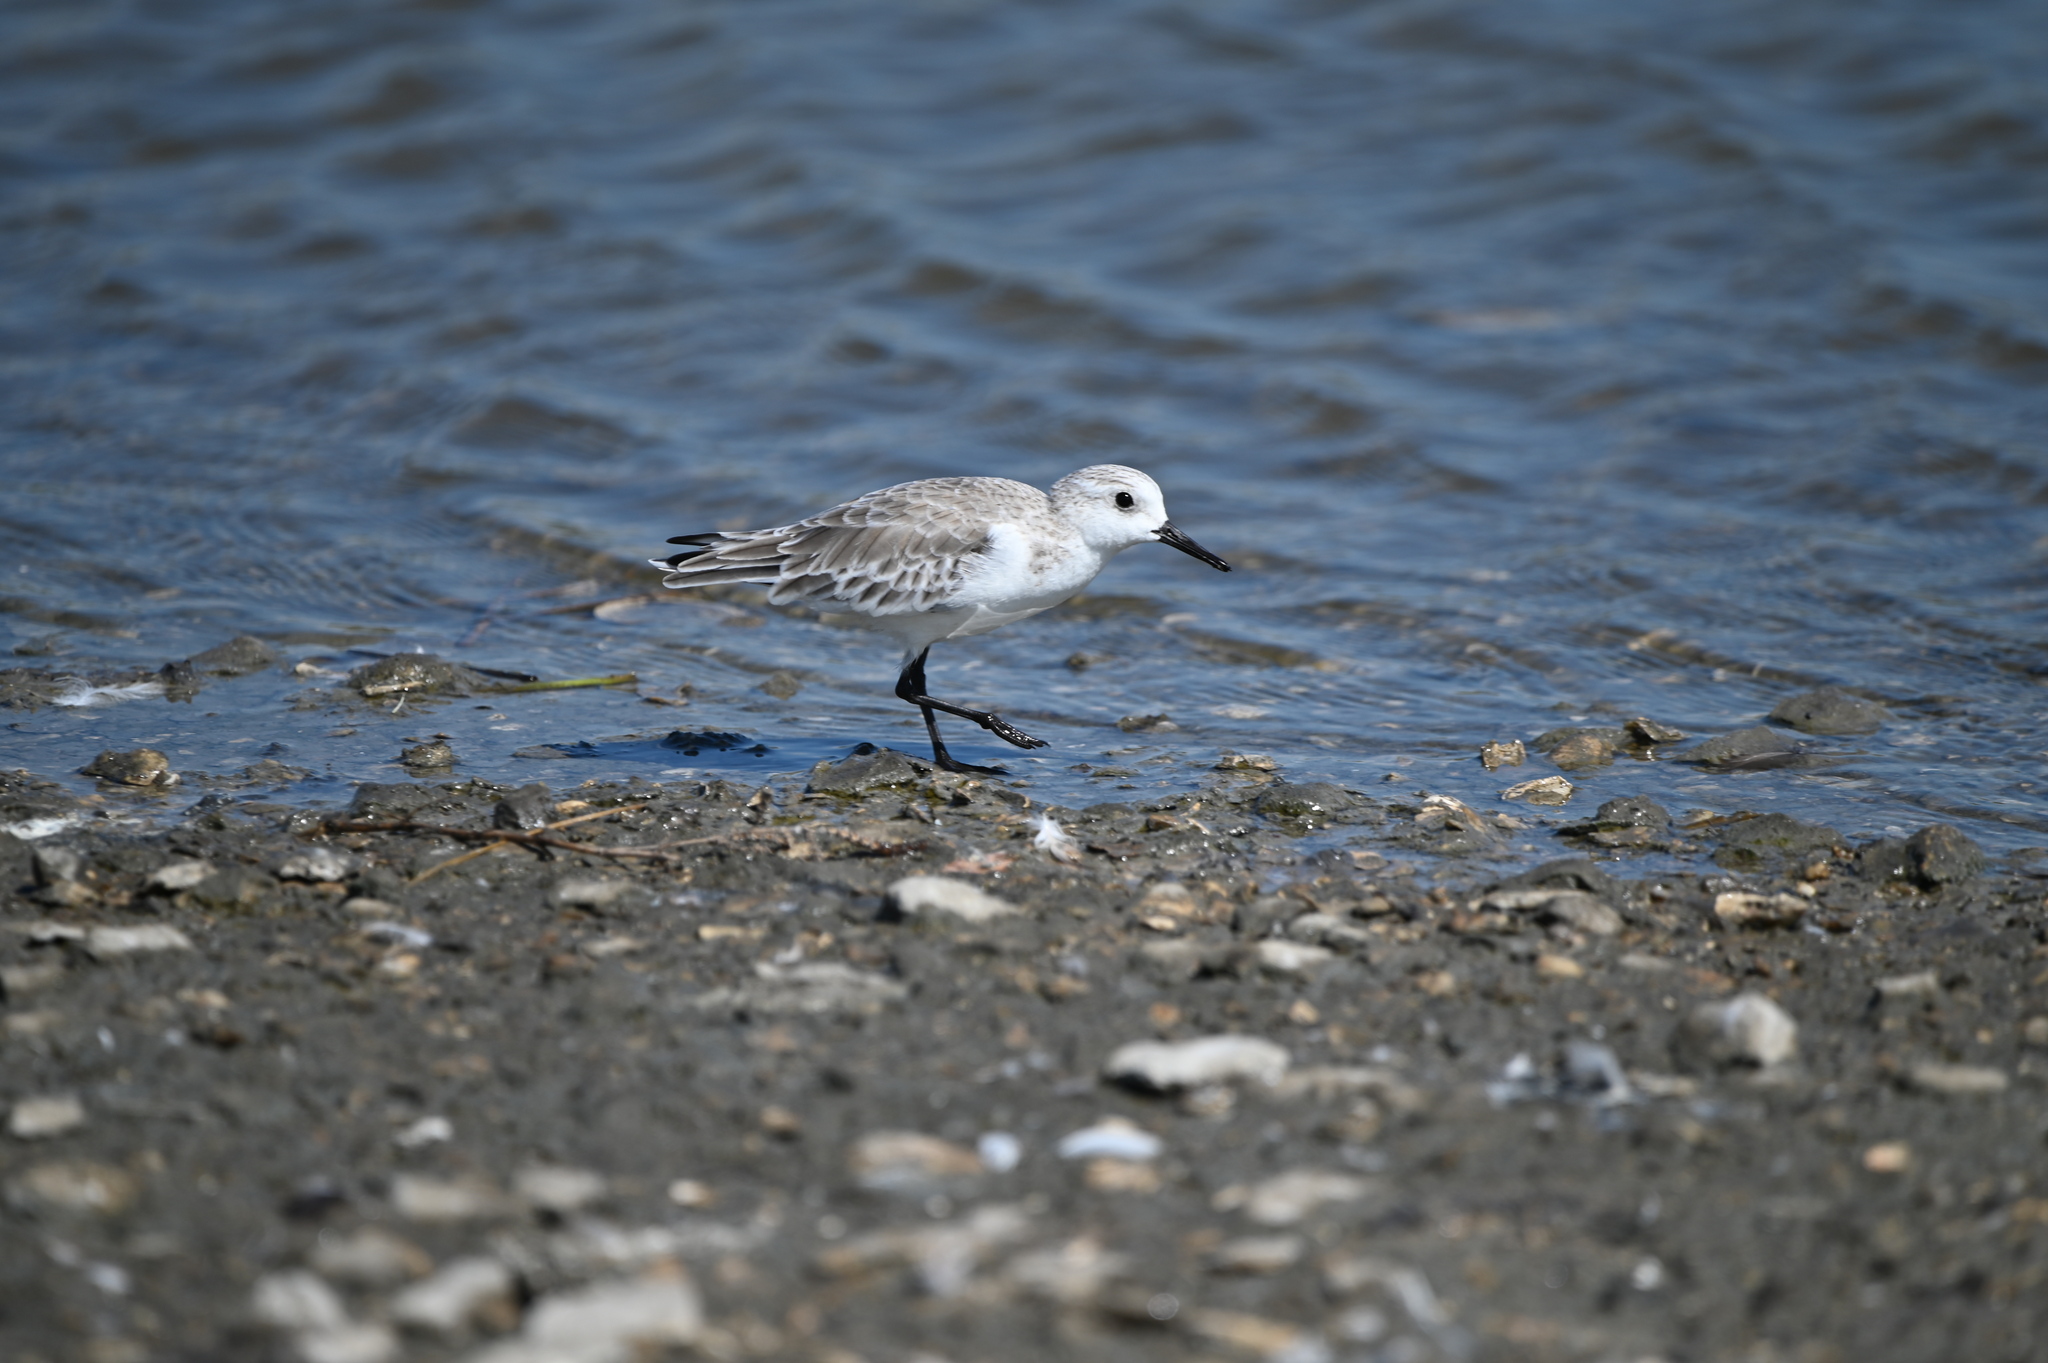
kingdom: Animalia
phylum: Chordata
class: Aves
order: Charadriiformes
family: Scolopacidae
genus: Calidris
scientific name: Calidris alba
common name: Sanderling
